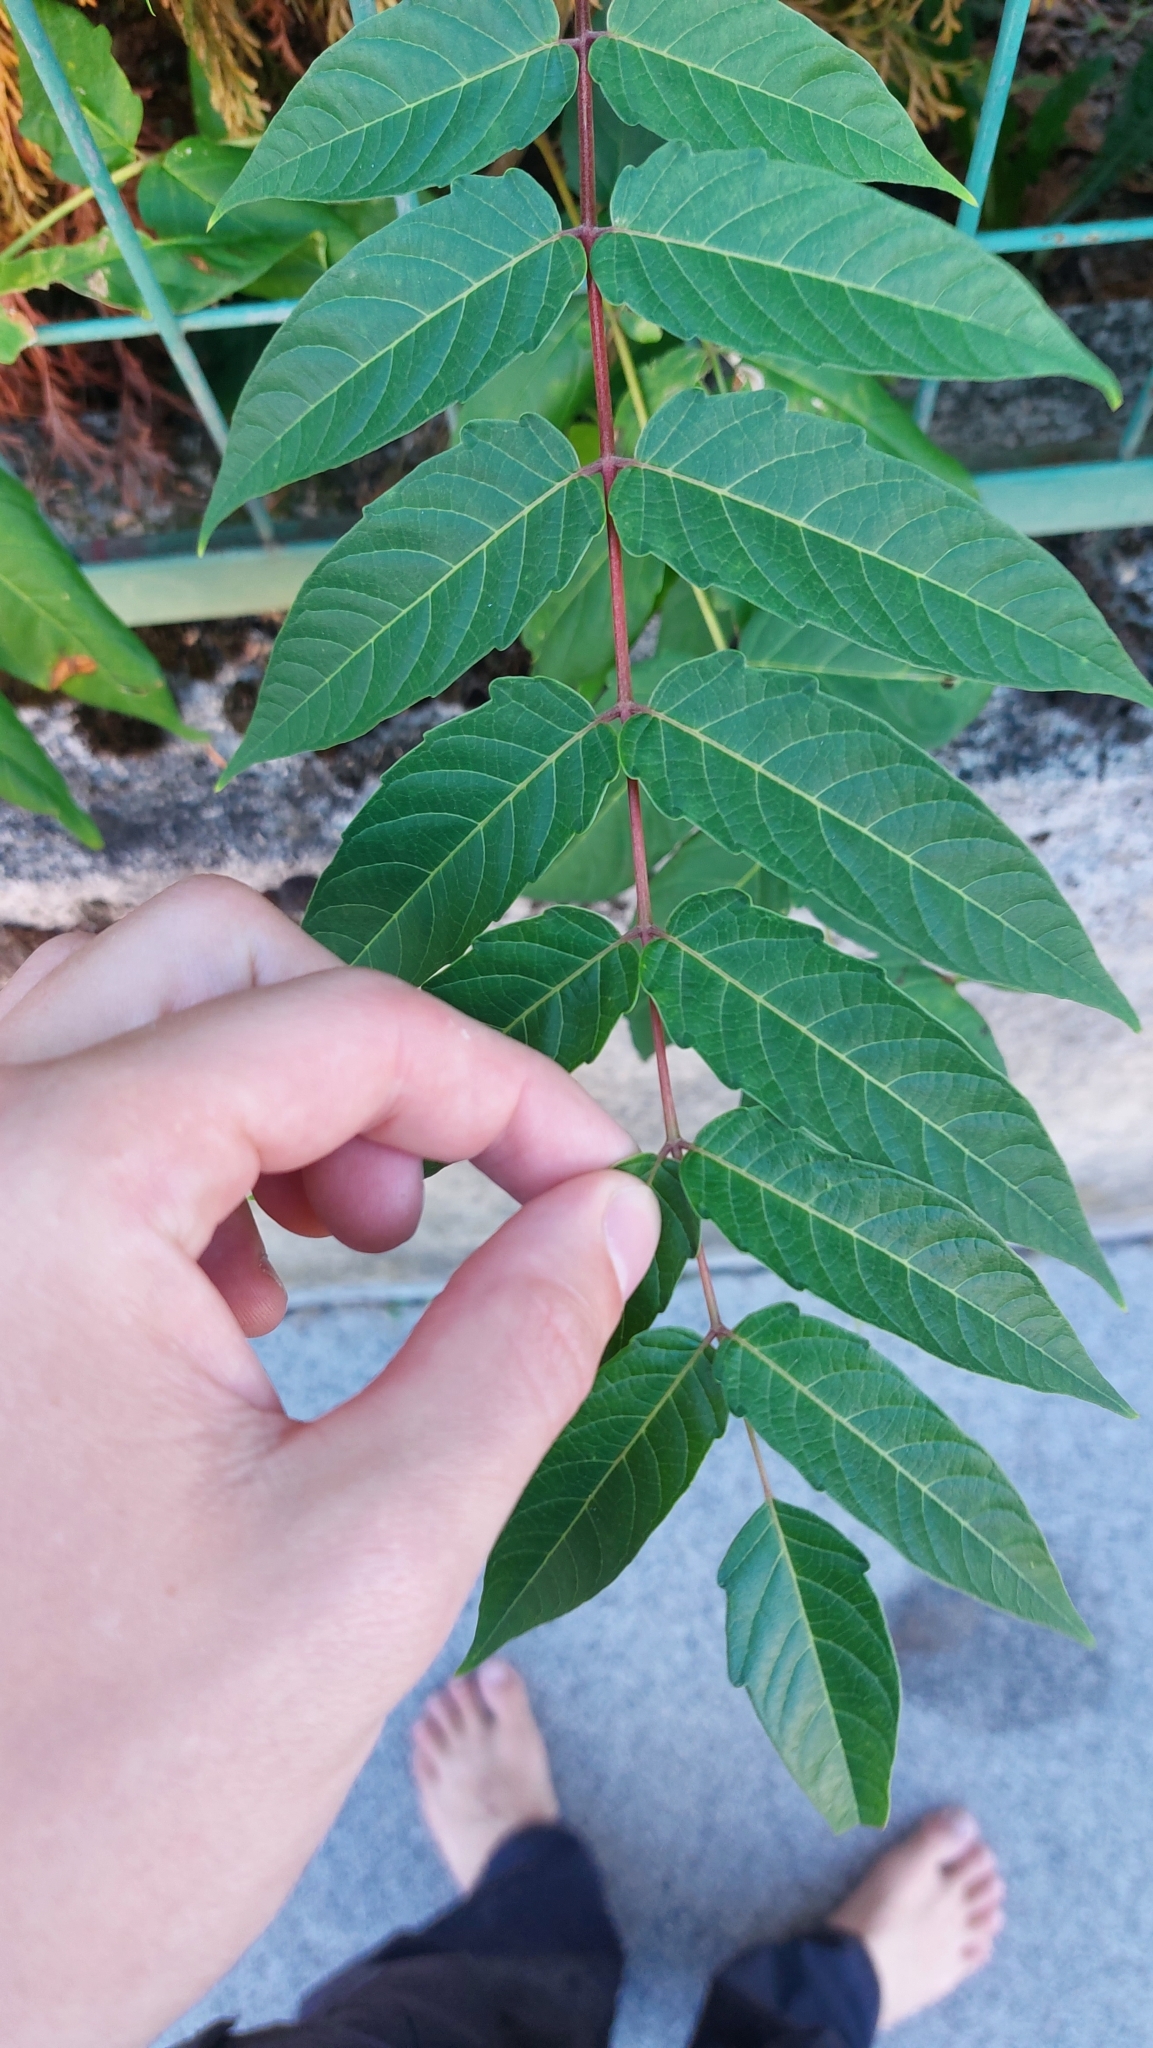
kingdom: Plantae
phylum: Tracheophyta
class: Magnoliopsida
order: Sapindales
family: Simaroubaceae
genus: Ailanthus
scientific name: Ailanthus altissima
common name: Tree-of-heaven
